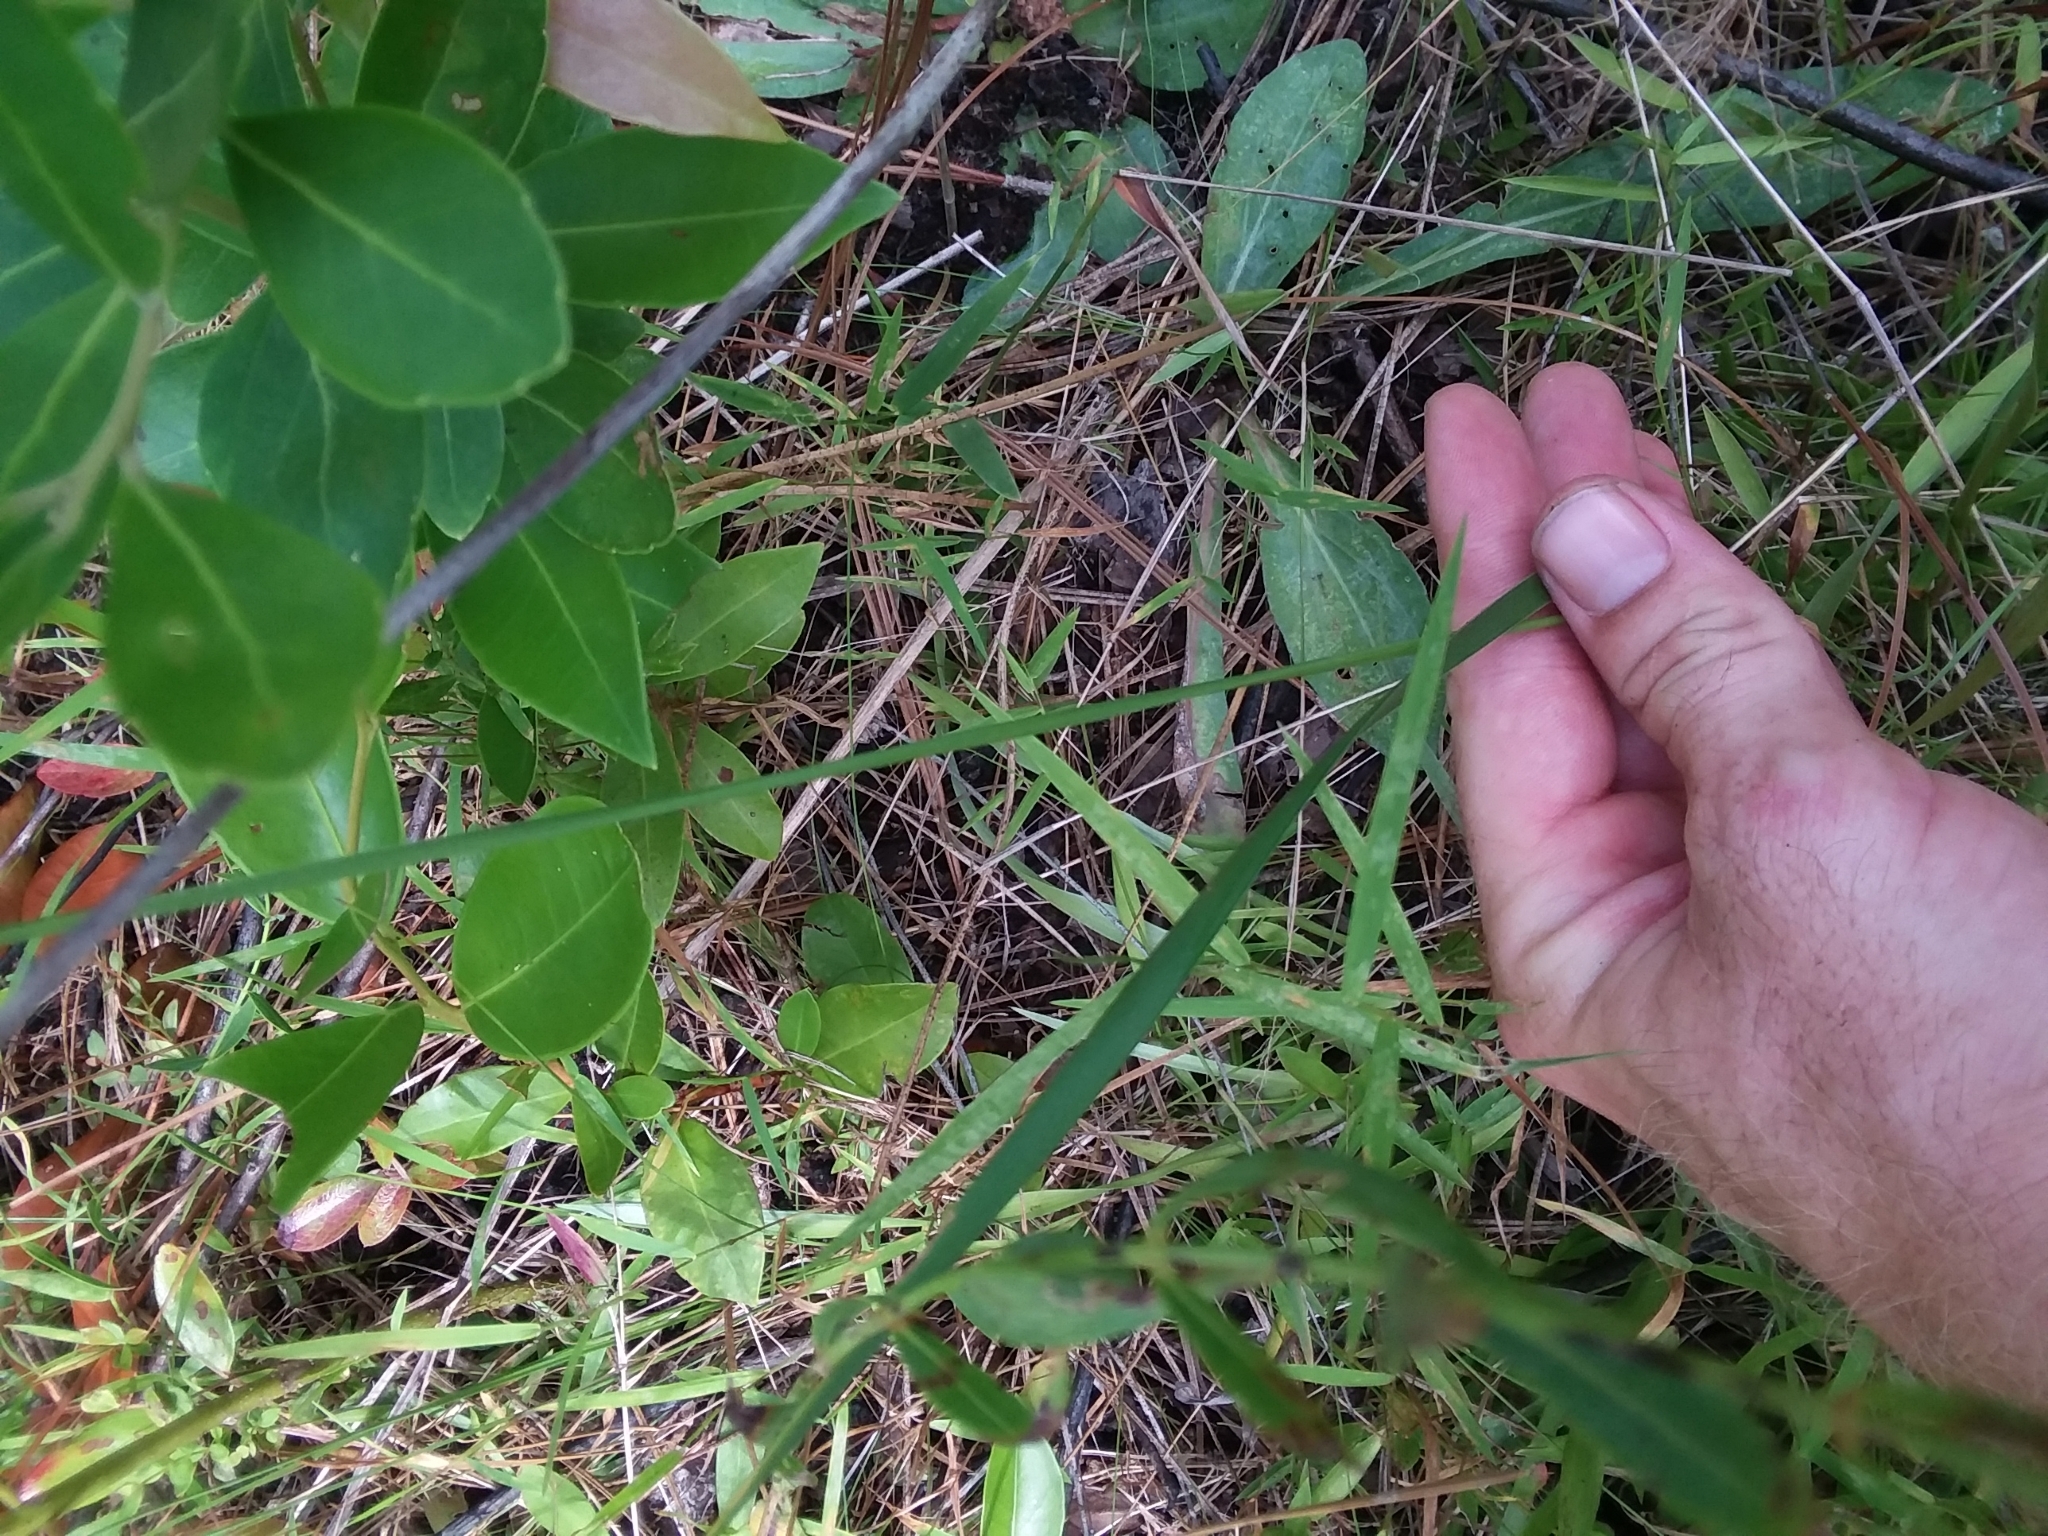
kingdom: Plantae
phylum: Tracheophyta
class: Liliopsida
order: Poales
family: Xyridaceae
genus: Xyris
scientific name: Xyris caroliniana
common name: Carolina yellow-eyed-grass
